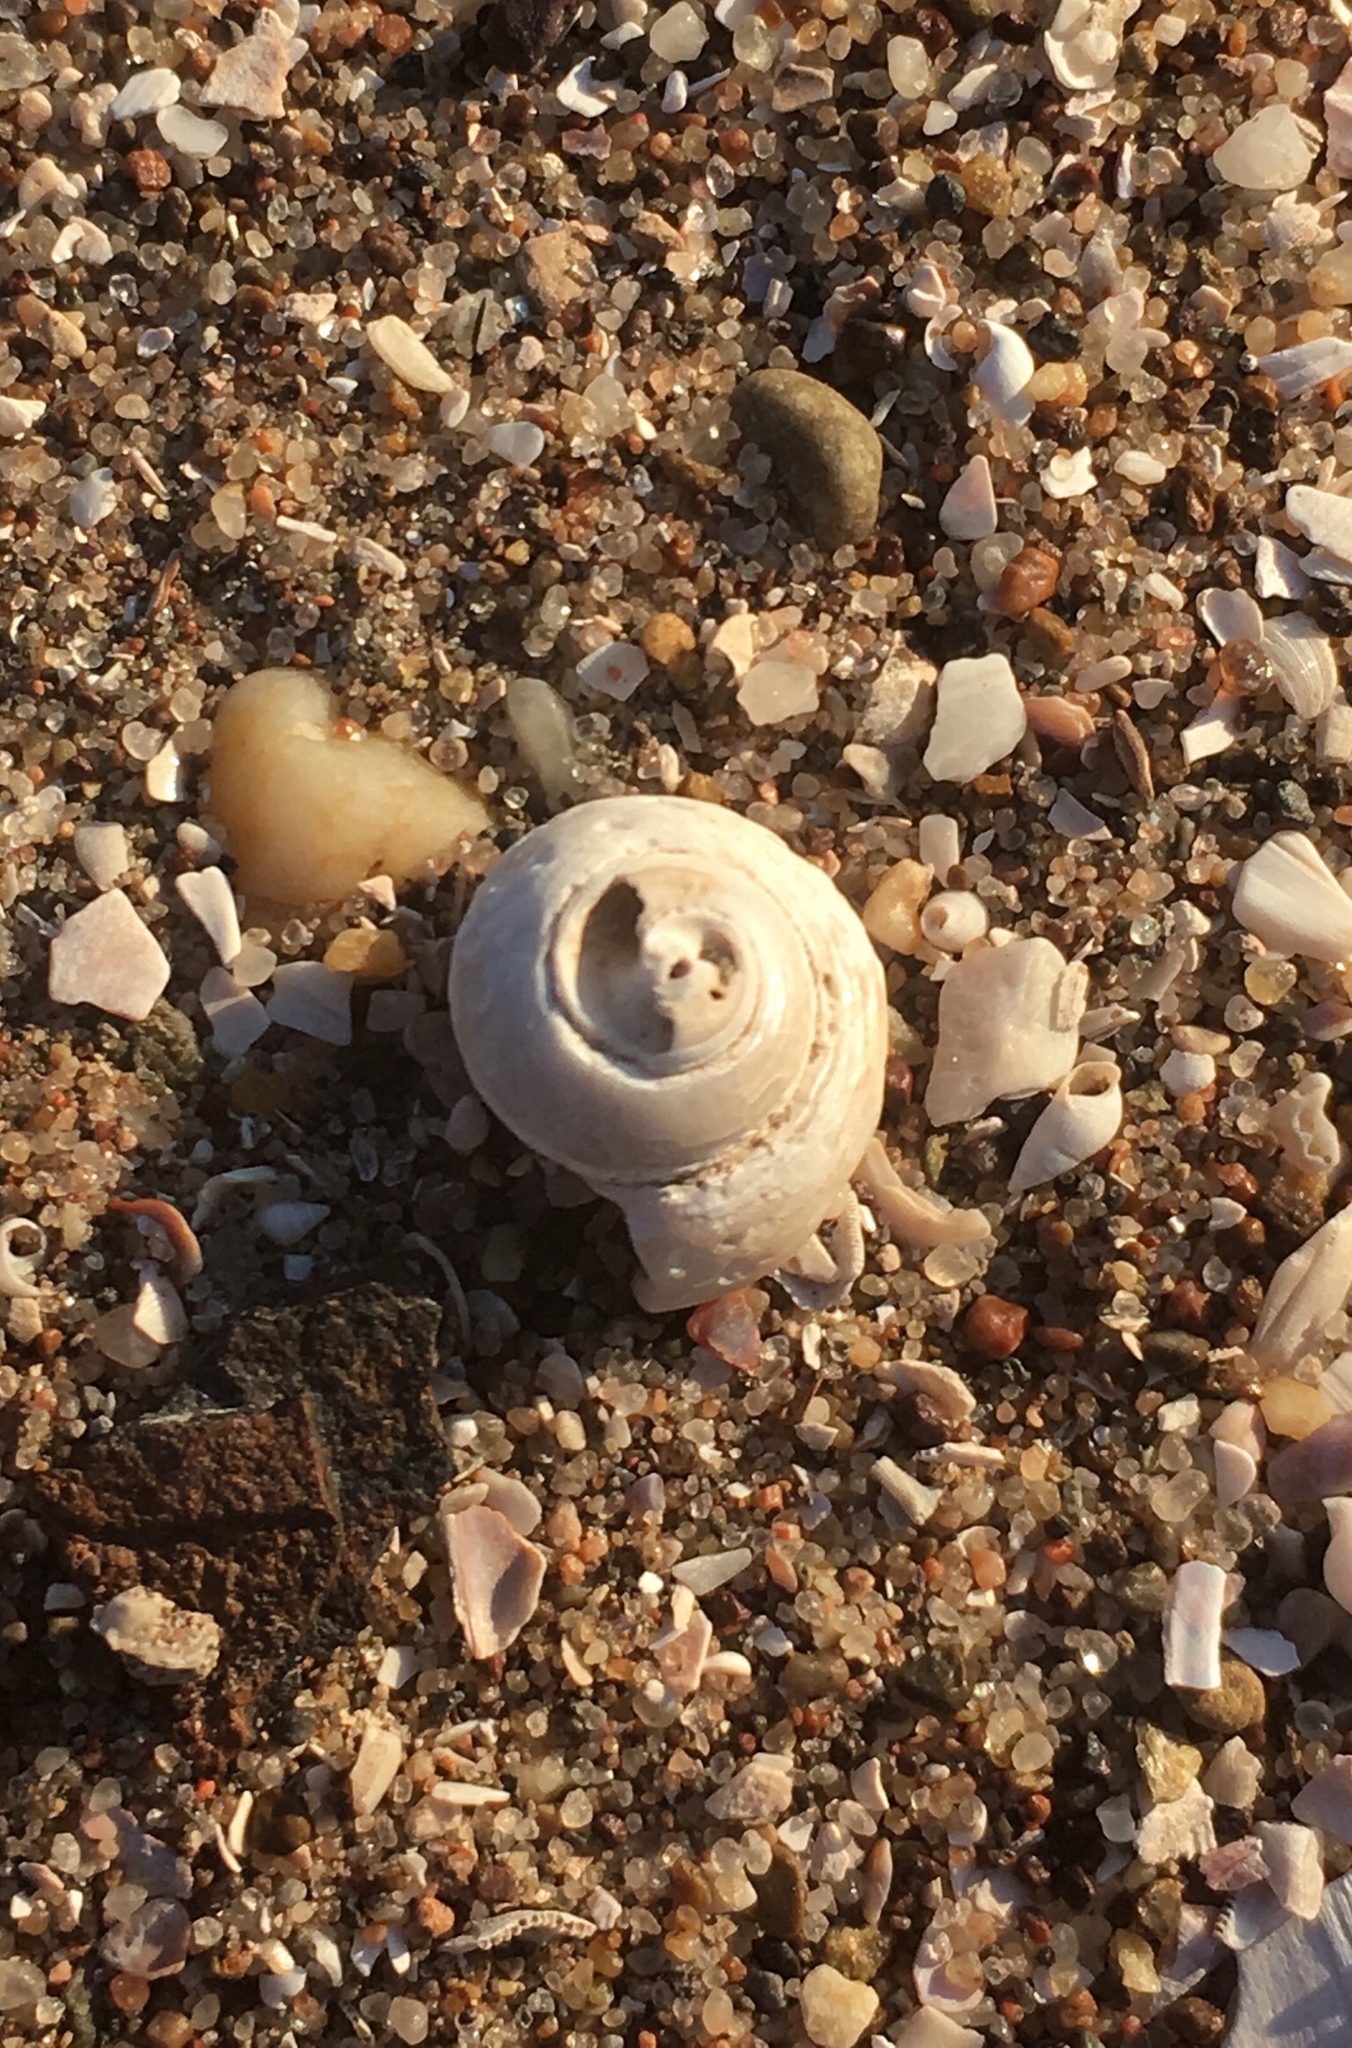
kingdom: Animalia
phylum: Mollusca
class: Gastropoda
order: Trochida
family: Tegulidae
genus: Tegula
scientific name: Tegula patagonica
